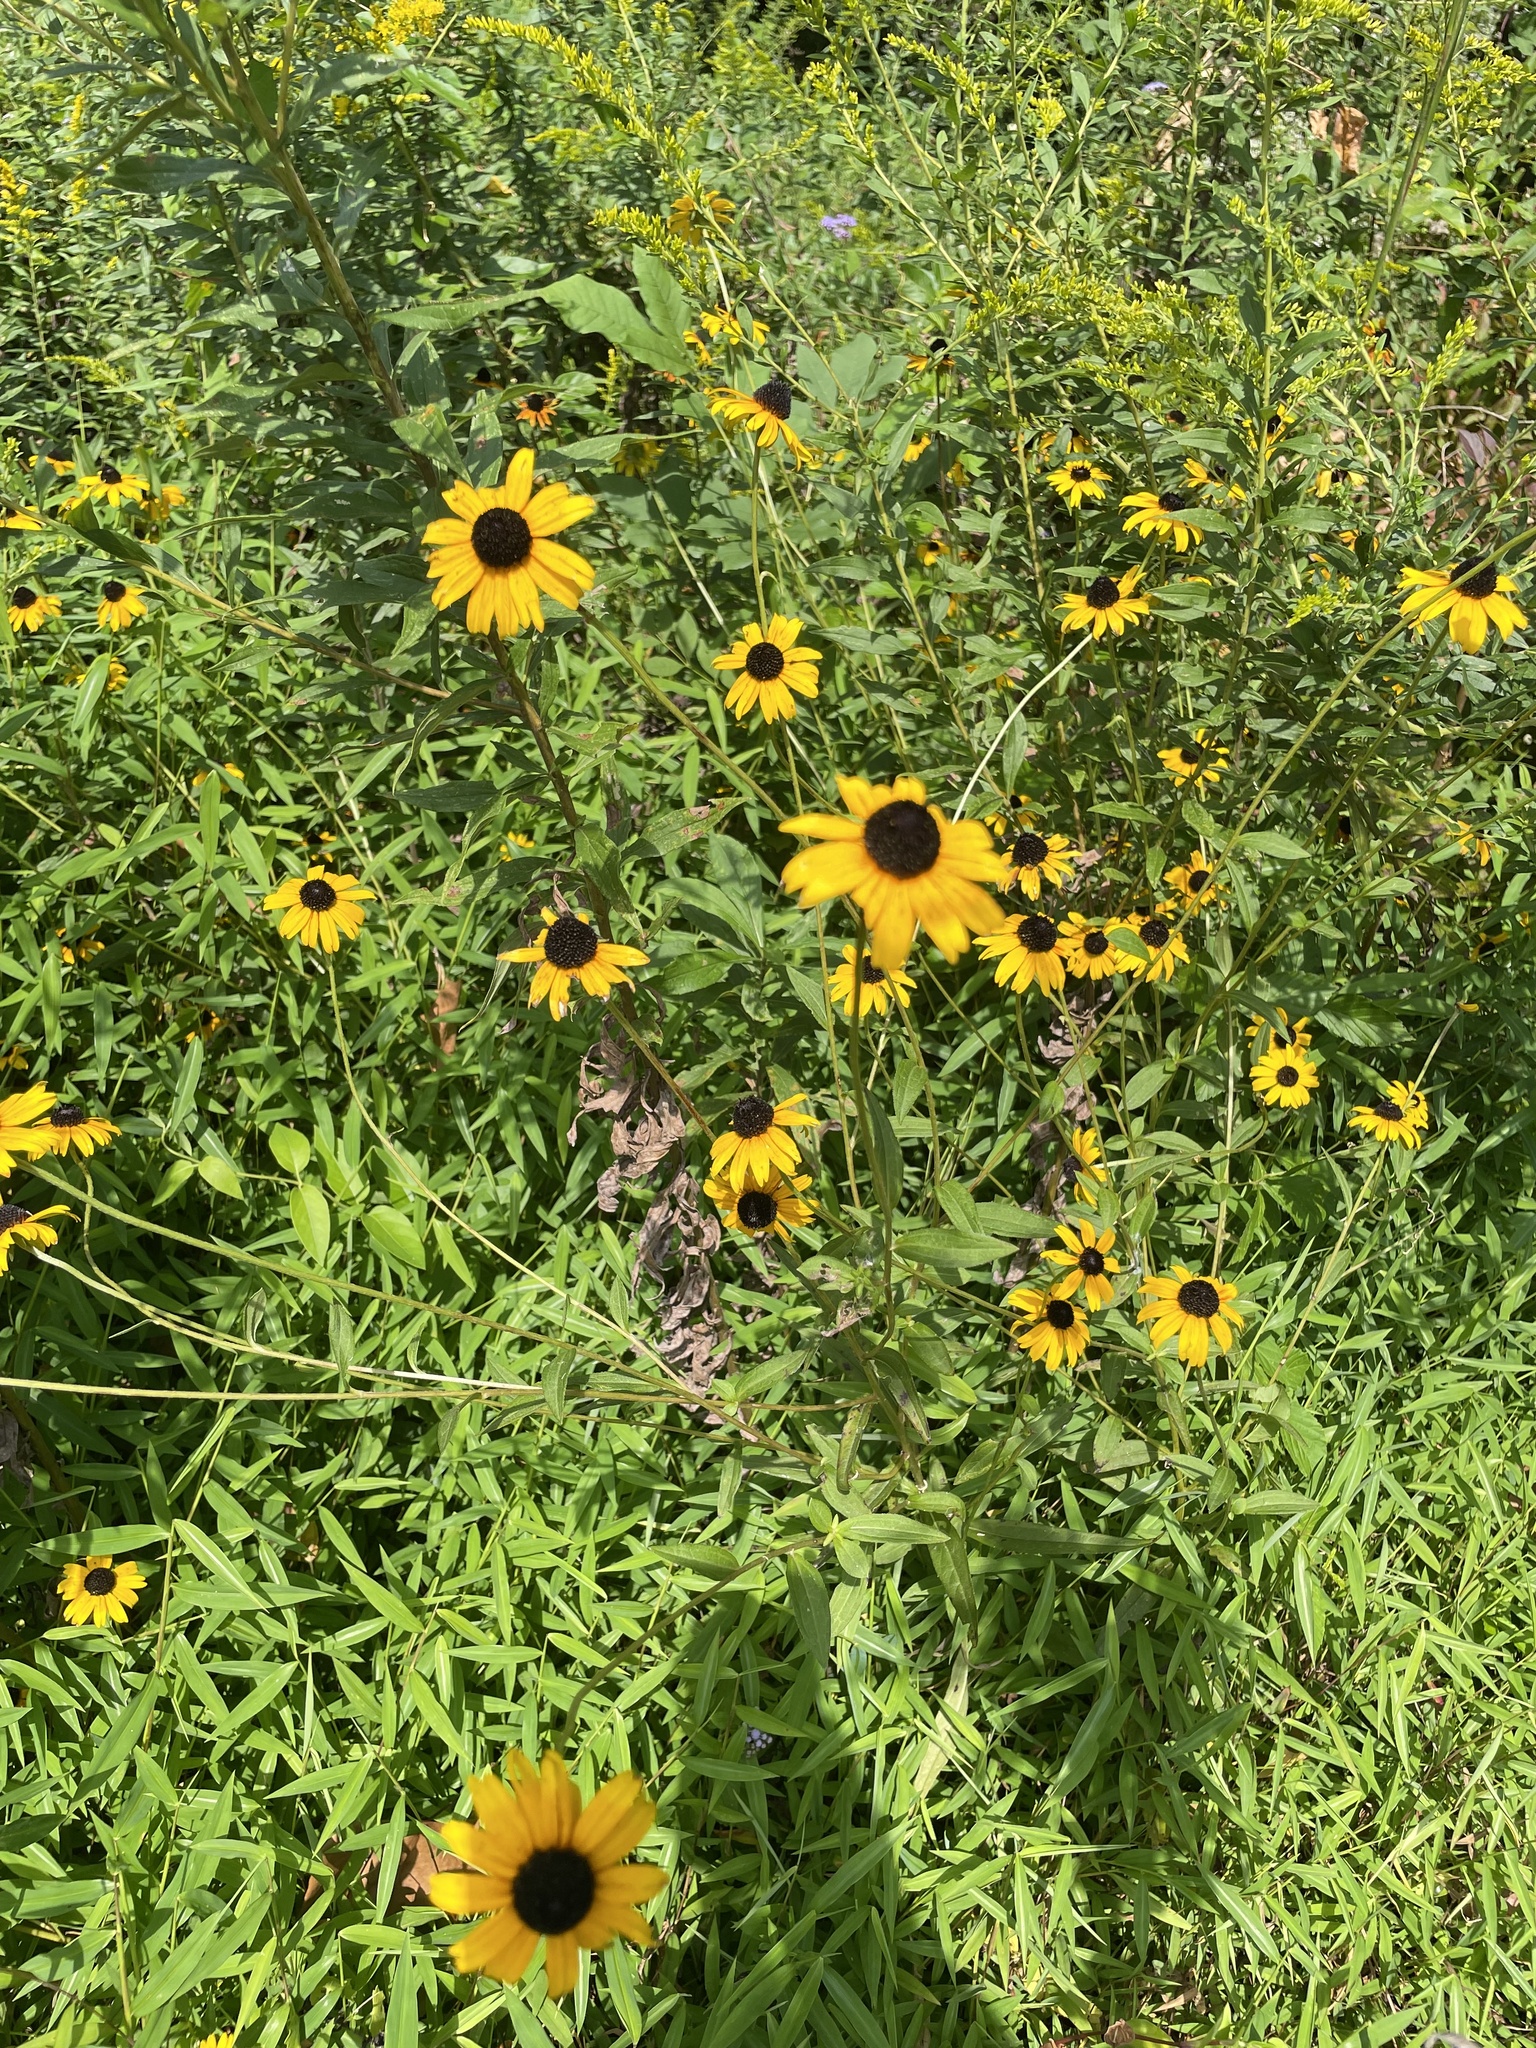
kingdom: Plantae
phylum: Tracheophyta
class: Magnoliopsida
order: Asterales
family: Asteraceae
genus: Rudbeckia
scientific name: Rudbeckia fulgida
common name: Perennial coneflower
